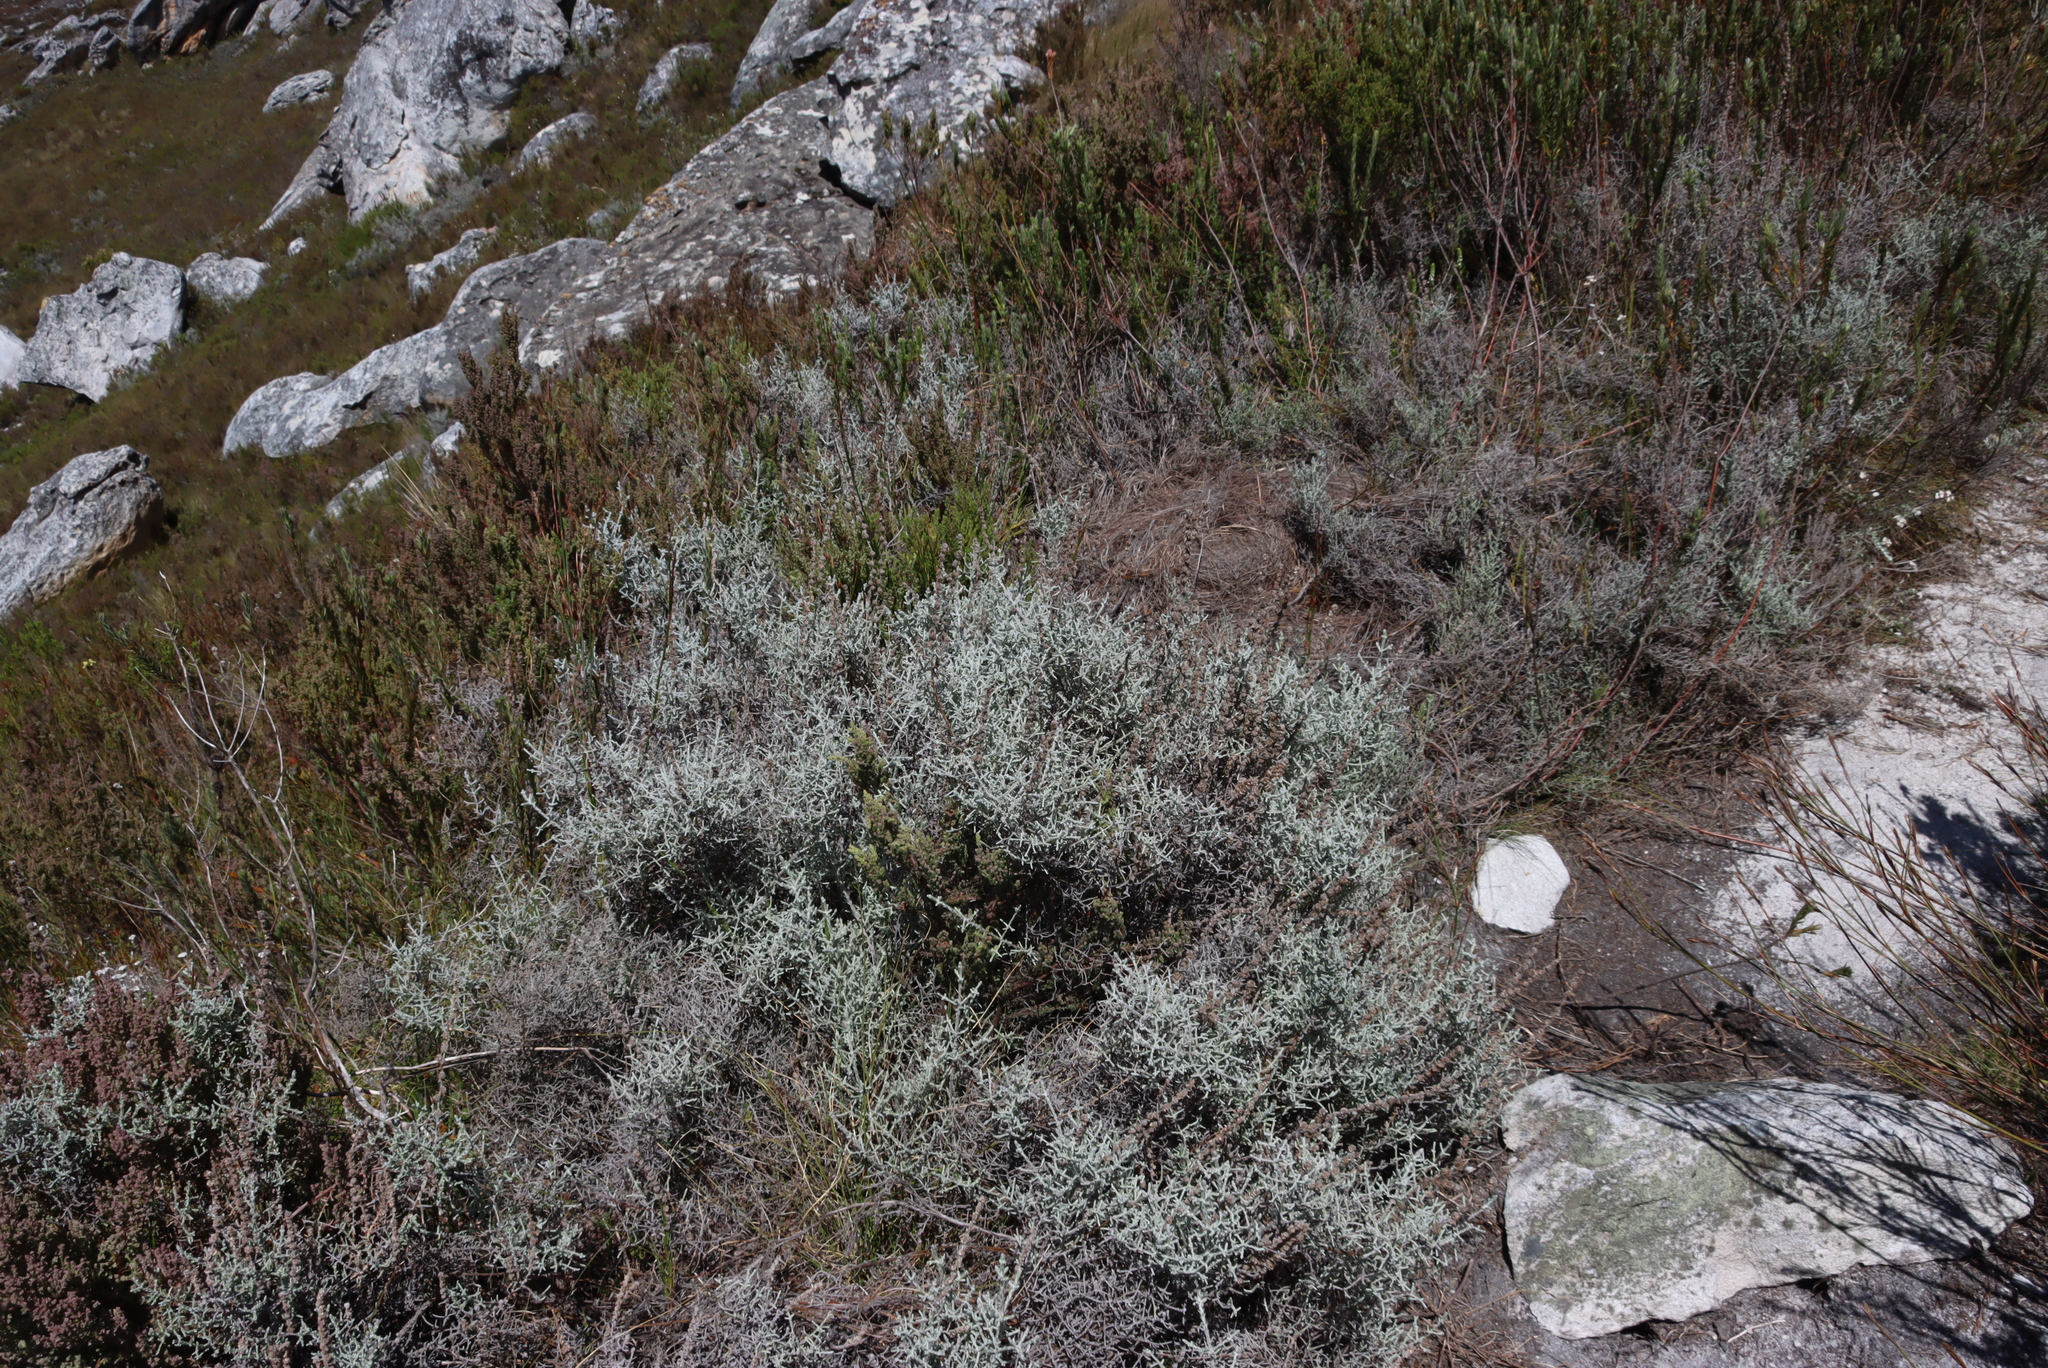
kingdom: Plantae
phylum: Tracheophyta
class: Magnoliopsida
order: Asterales
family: Asteraceae
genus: Seriphium
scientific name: Seriphium plumosum
